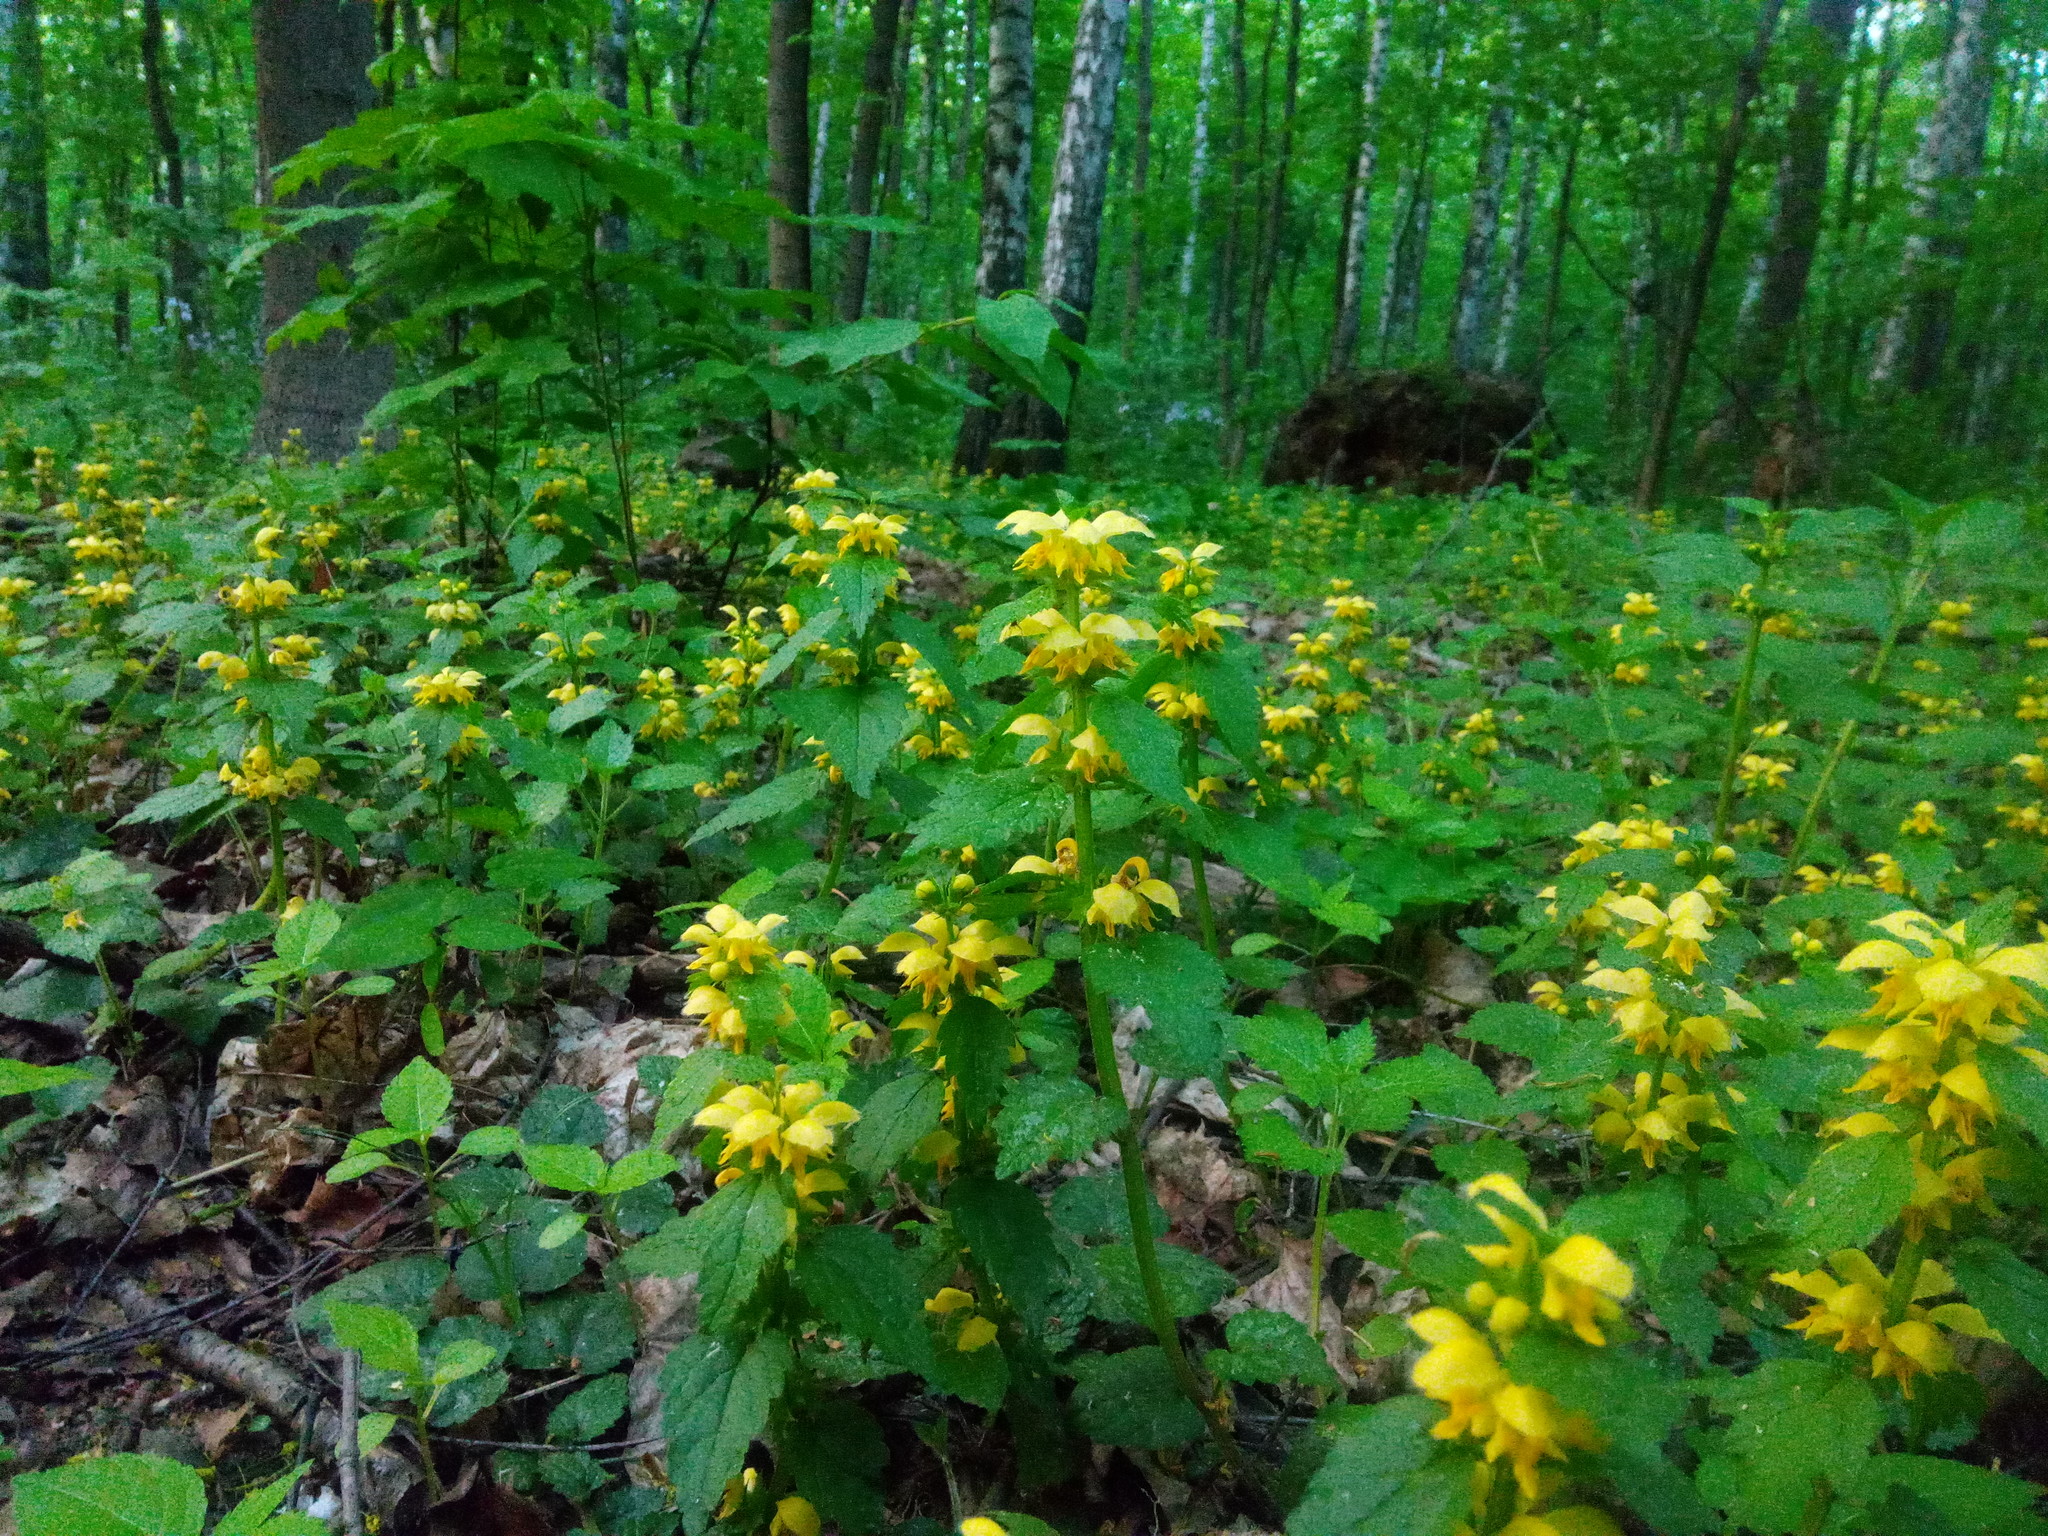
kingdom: Plantae
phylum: Tracheophyta
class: Magnoliopsida
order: Lamiales
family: Lamiaceae
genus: Lamium
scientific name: Lamium galeobdolon
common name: Yellow archangel
